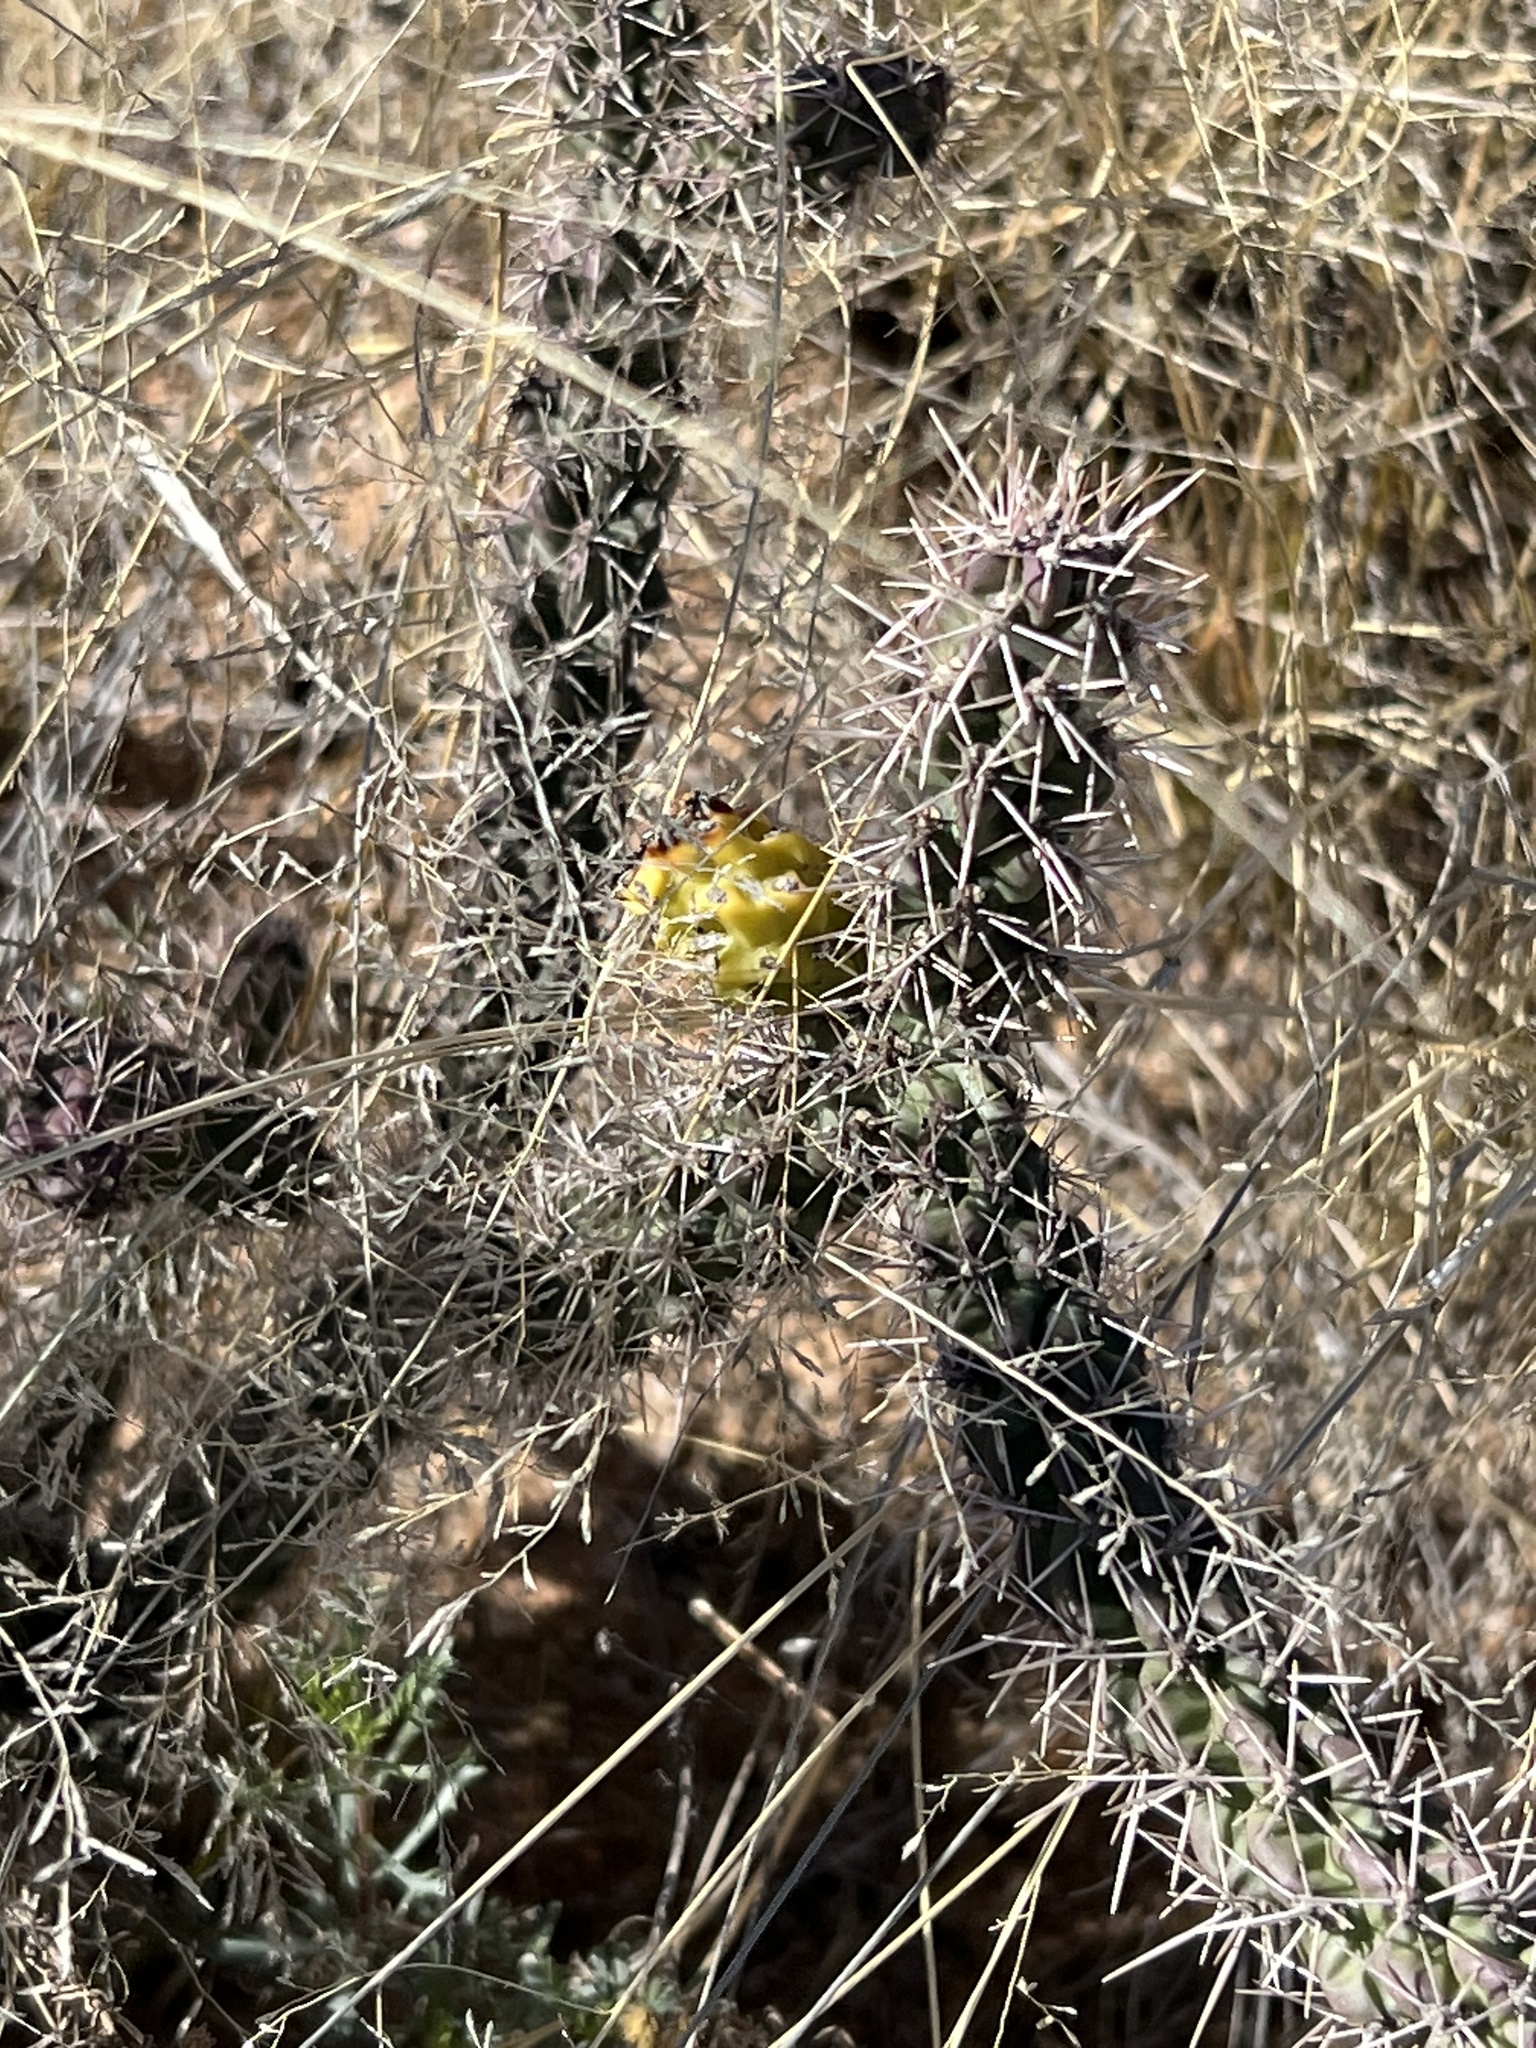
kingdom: Plantae
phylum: Tracheophyta
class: Magnoliopsida
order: Caryophyllales
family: Cactaceae
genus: Cylindropuntia
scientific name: Cylindropuntia imbricata
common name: Candelabrum cactus
